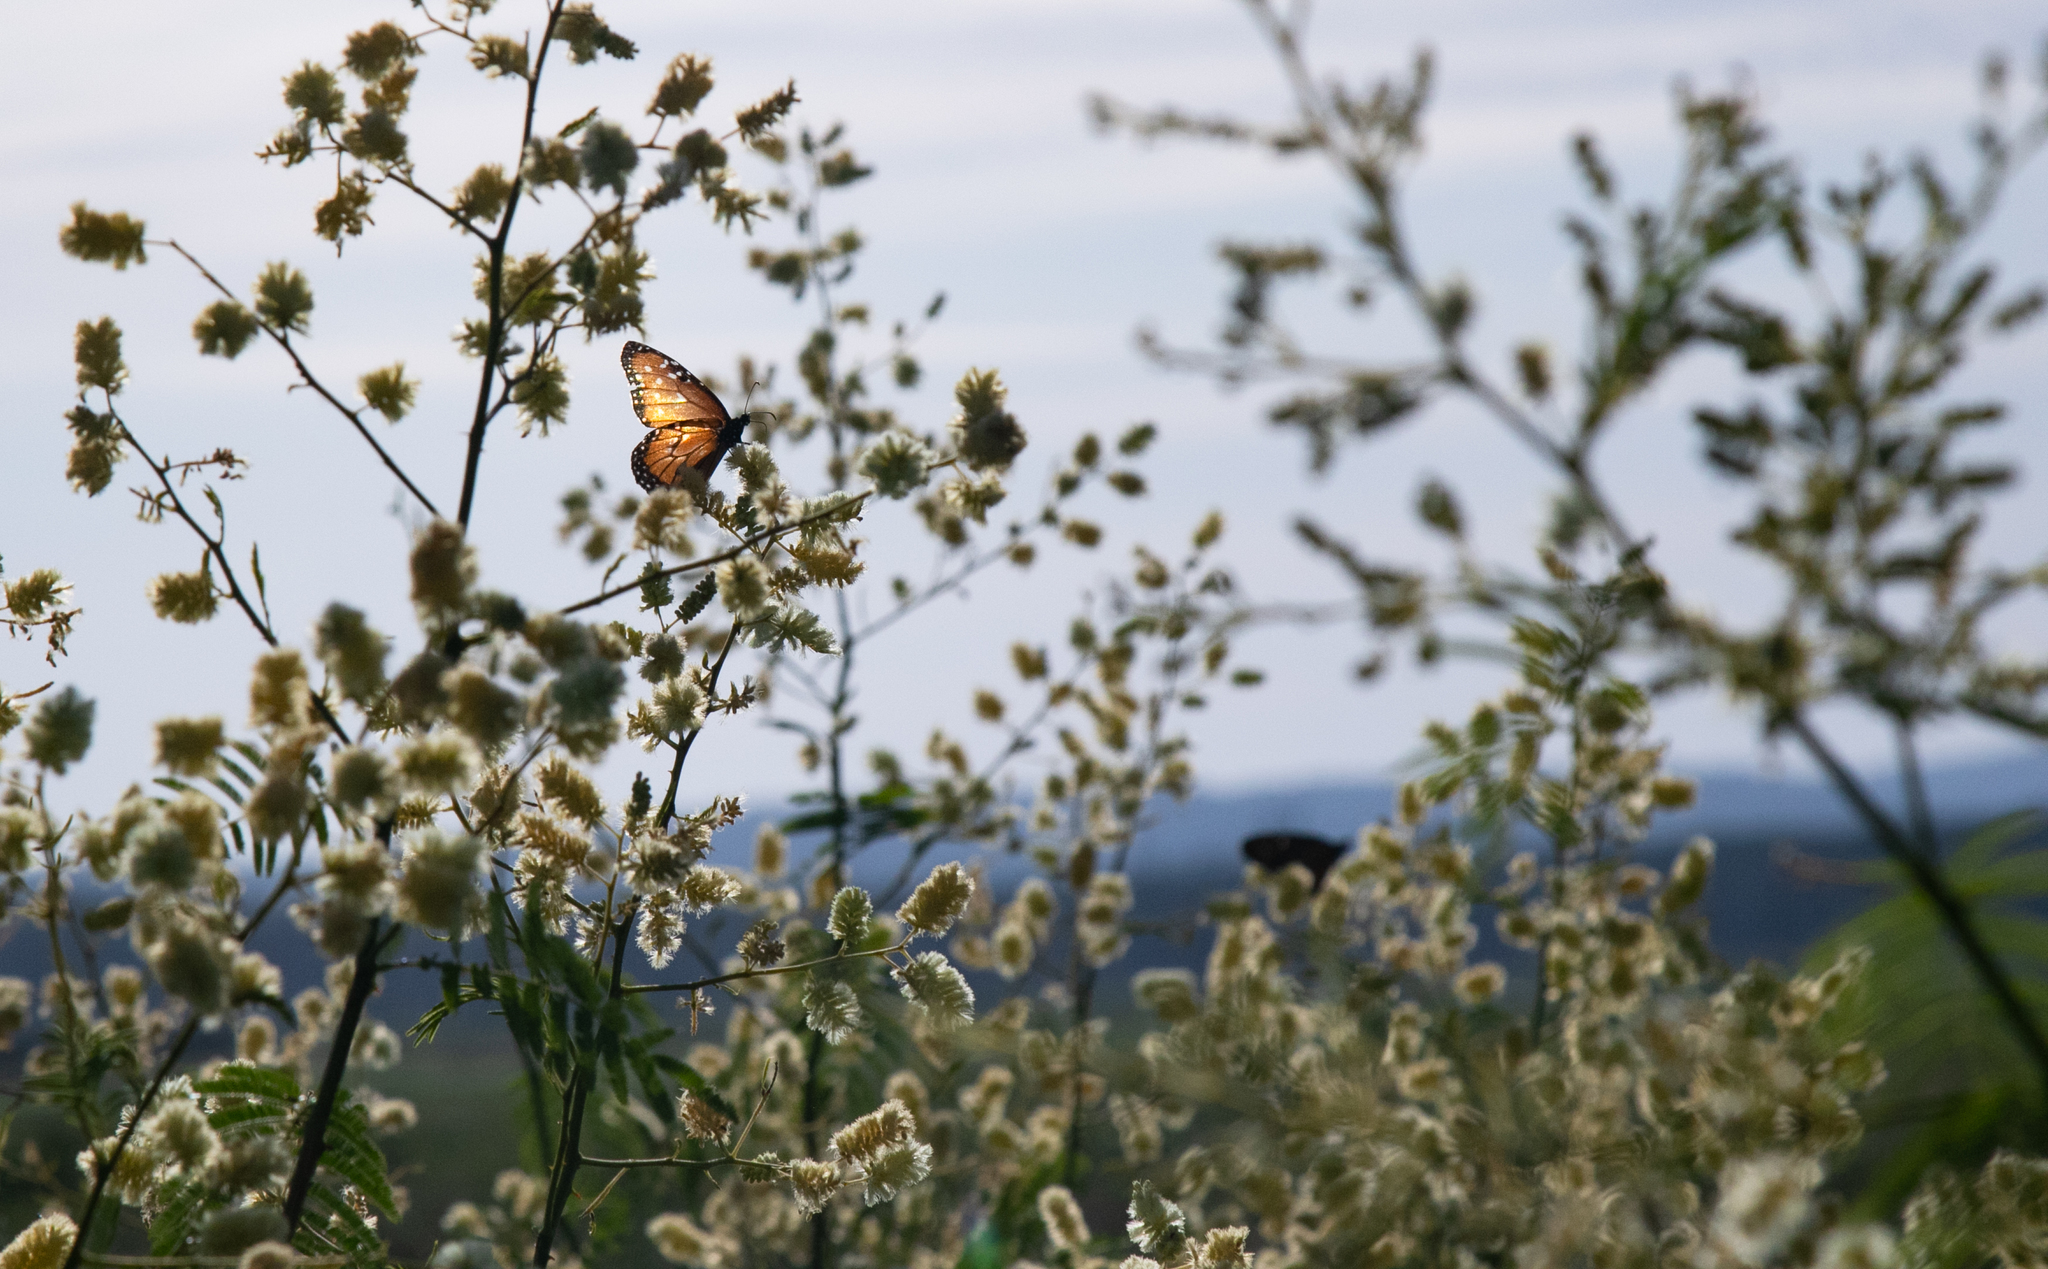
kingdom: Animalia
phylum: Arthropoda
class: Insecta
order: Lepidoptera
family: Nymphalidae
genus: Danaus
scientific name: Danaus gilippus
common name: Queen
